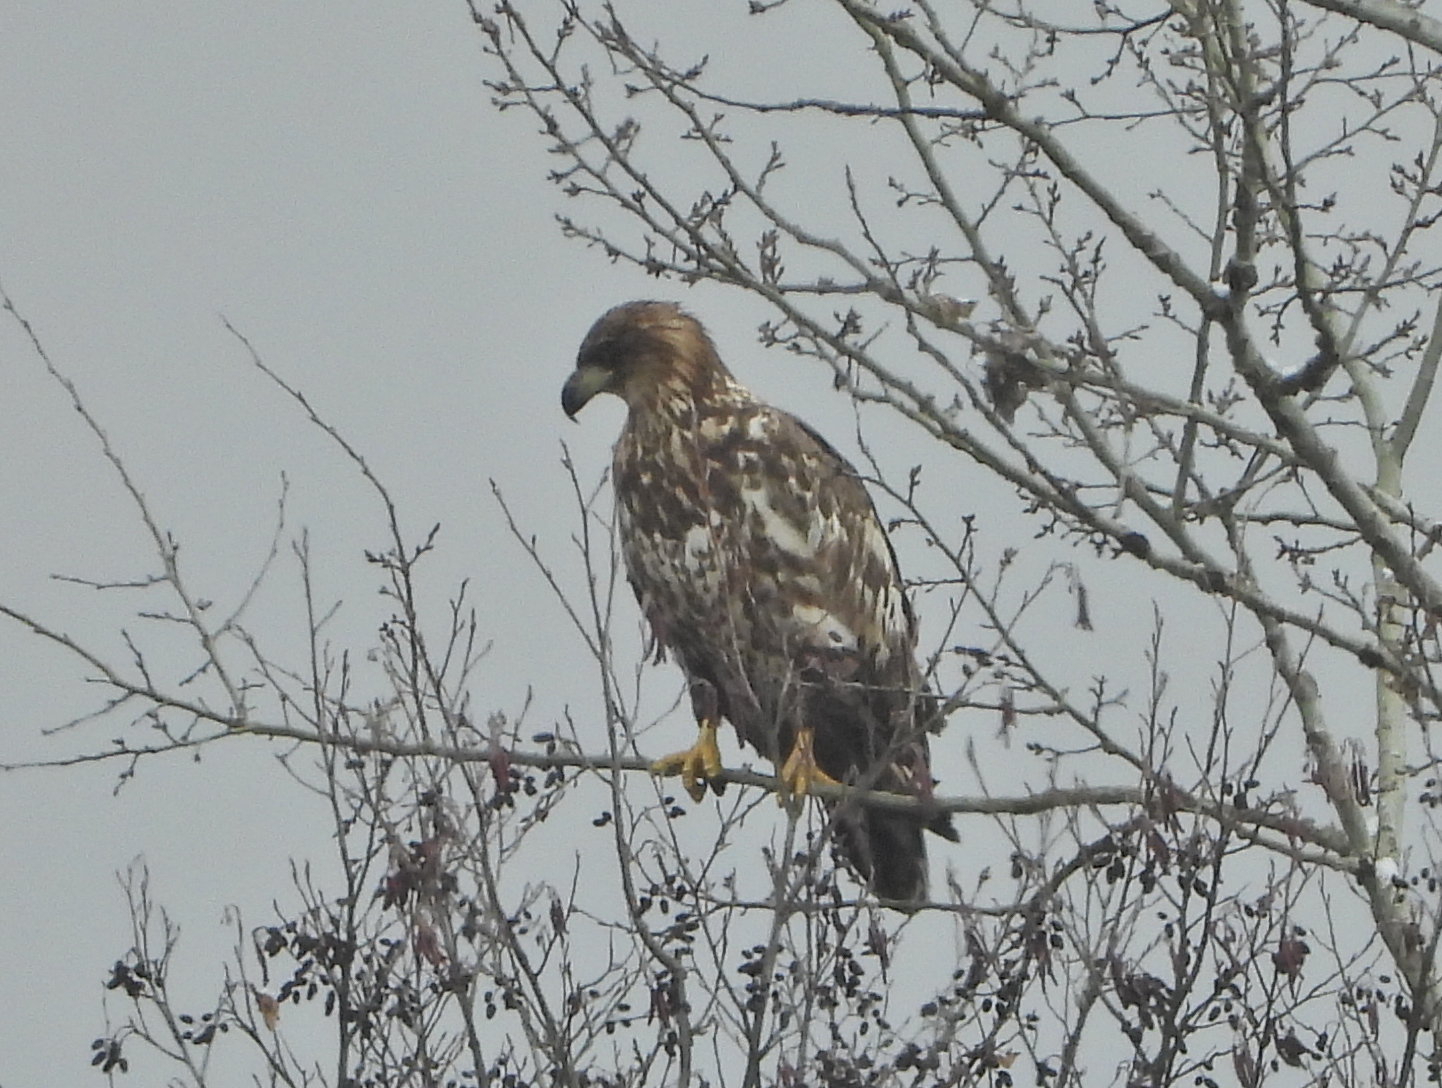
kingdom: Animalia
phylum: Chordata
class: Aves
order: Accipitriformes
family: Accipitridae
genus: Haliaeetus
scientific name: Haliaeetus albicilla
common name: White-tailed eagle
